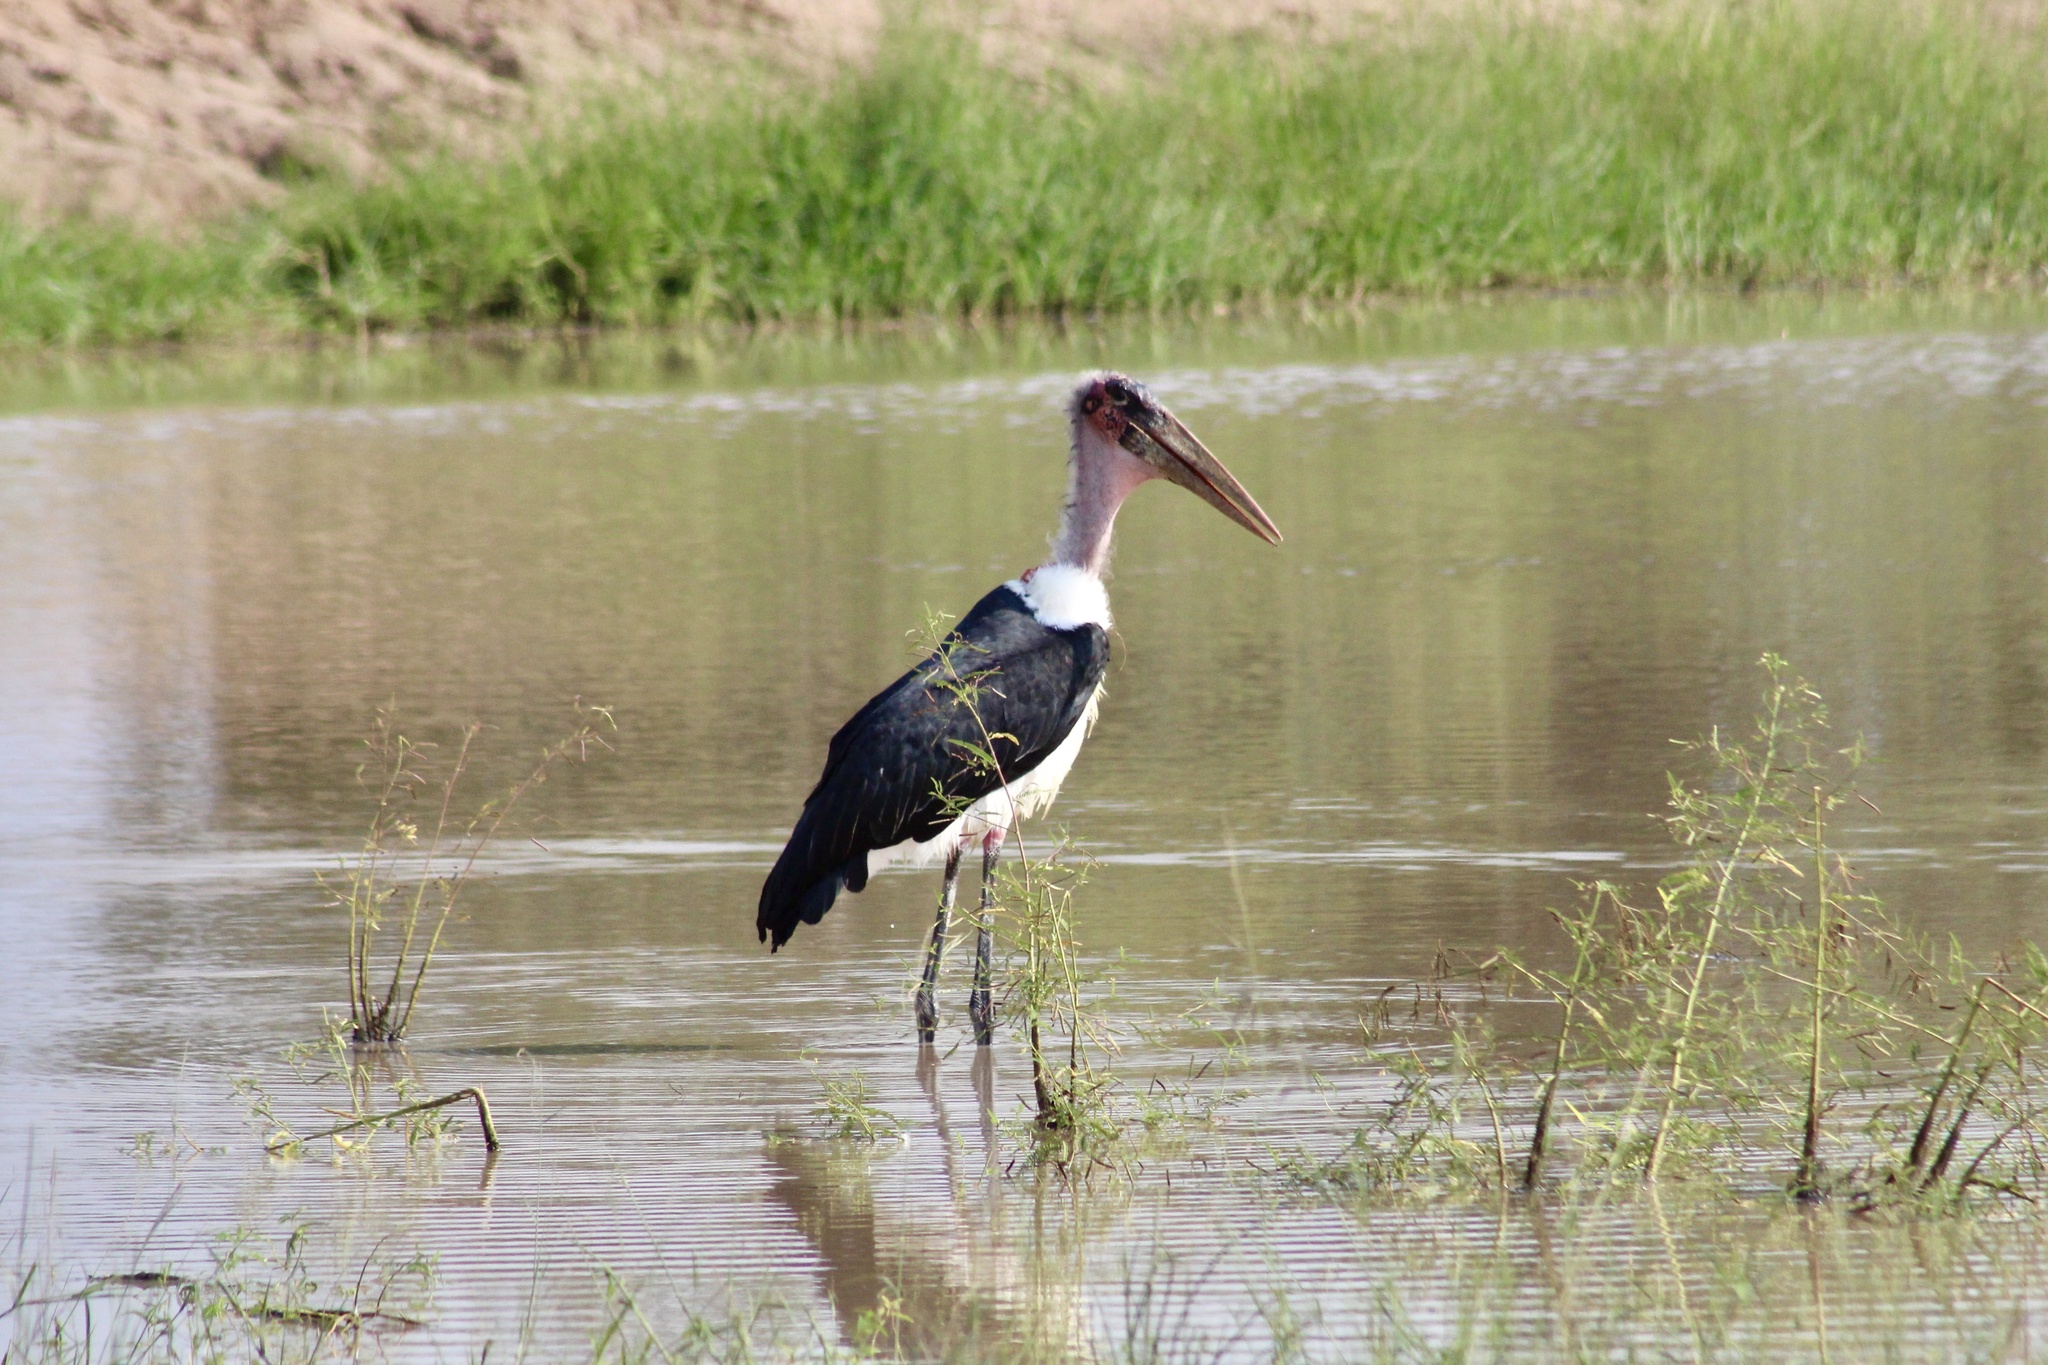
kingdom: Animalia
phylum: Chordata
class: Aves
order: Ciconiiformes
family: Ciconiidae
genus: Leptoptilos
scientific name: Leptoptilos crumenifer
